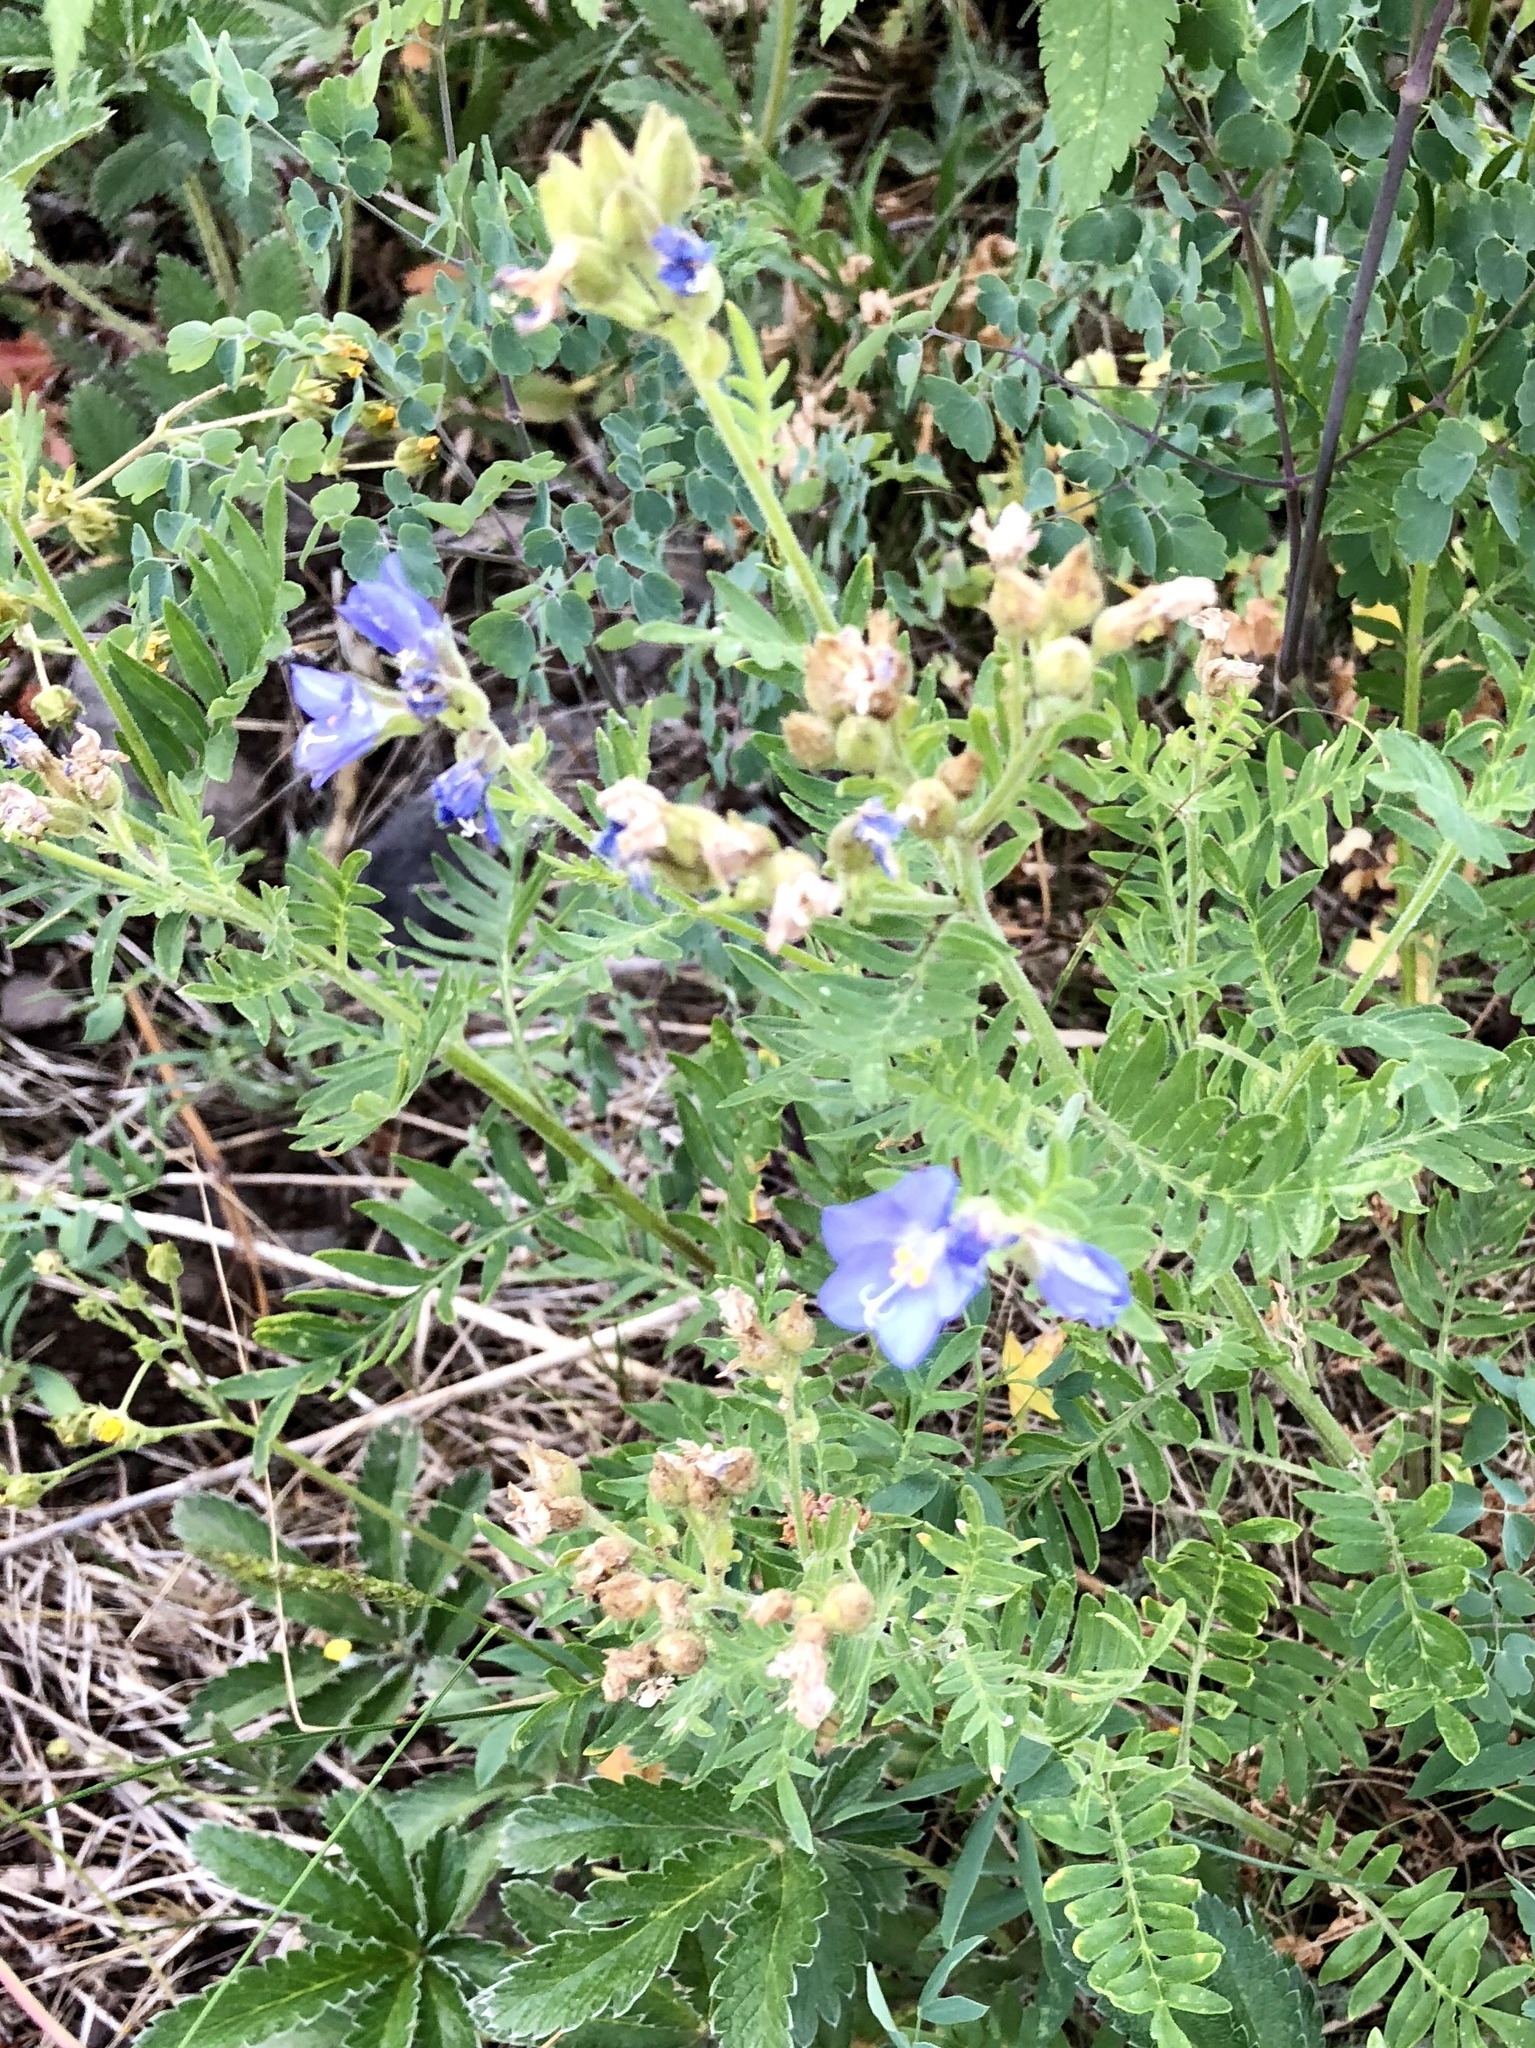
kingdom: Plantae
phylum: Tracheophyta
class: Magnoliopsida
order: Ericales
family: Polemoniaceae
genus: Polemonium
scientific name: Polemonium foliosissimum
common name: Leafy jacob's-ladder
